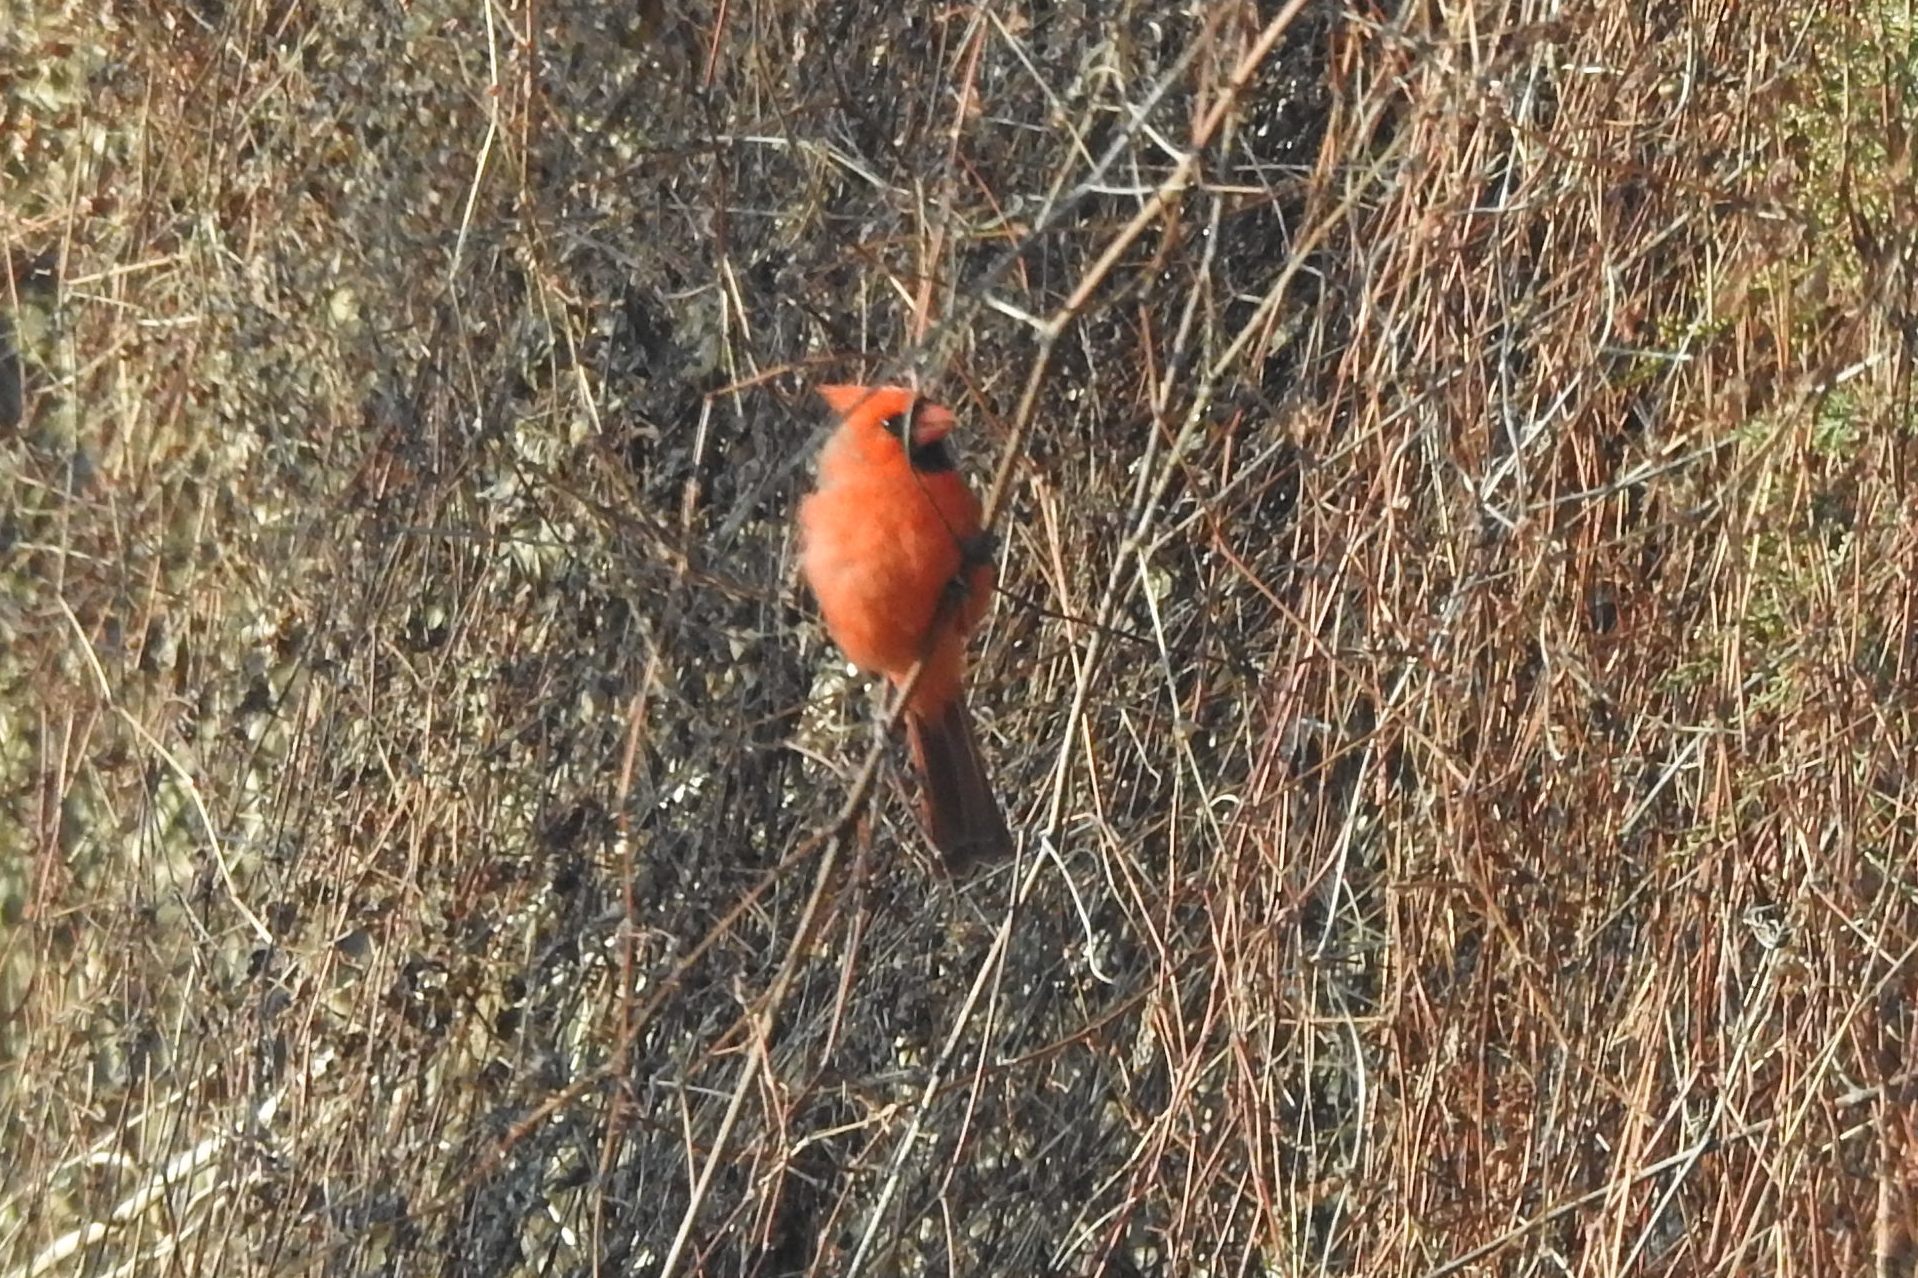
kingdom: Animalia
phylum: Chordata
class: Aves
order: Passeriformes
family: Cardinalidae
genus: Cardinalis
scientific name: Cardinalis cardinalis
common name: Northern cardinal
